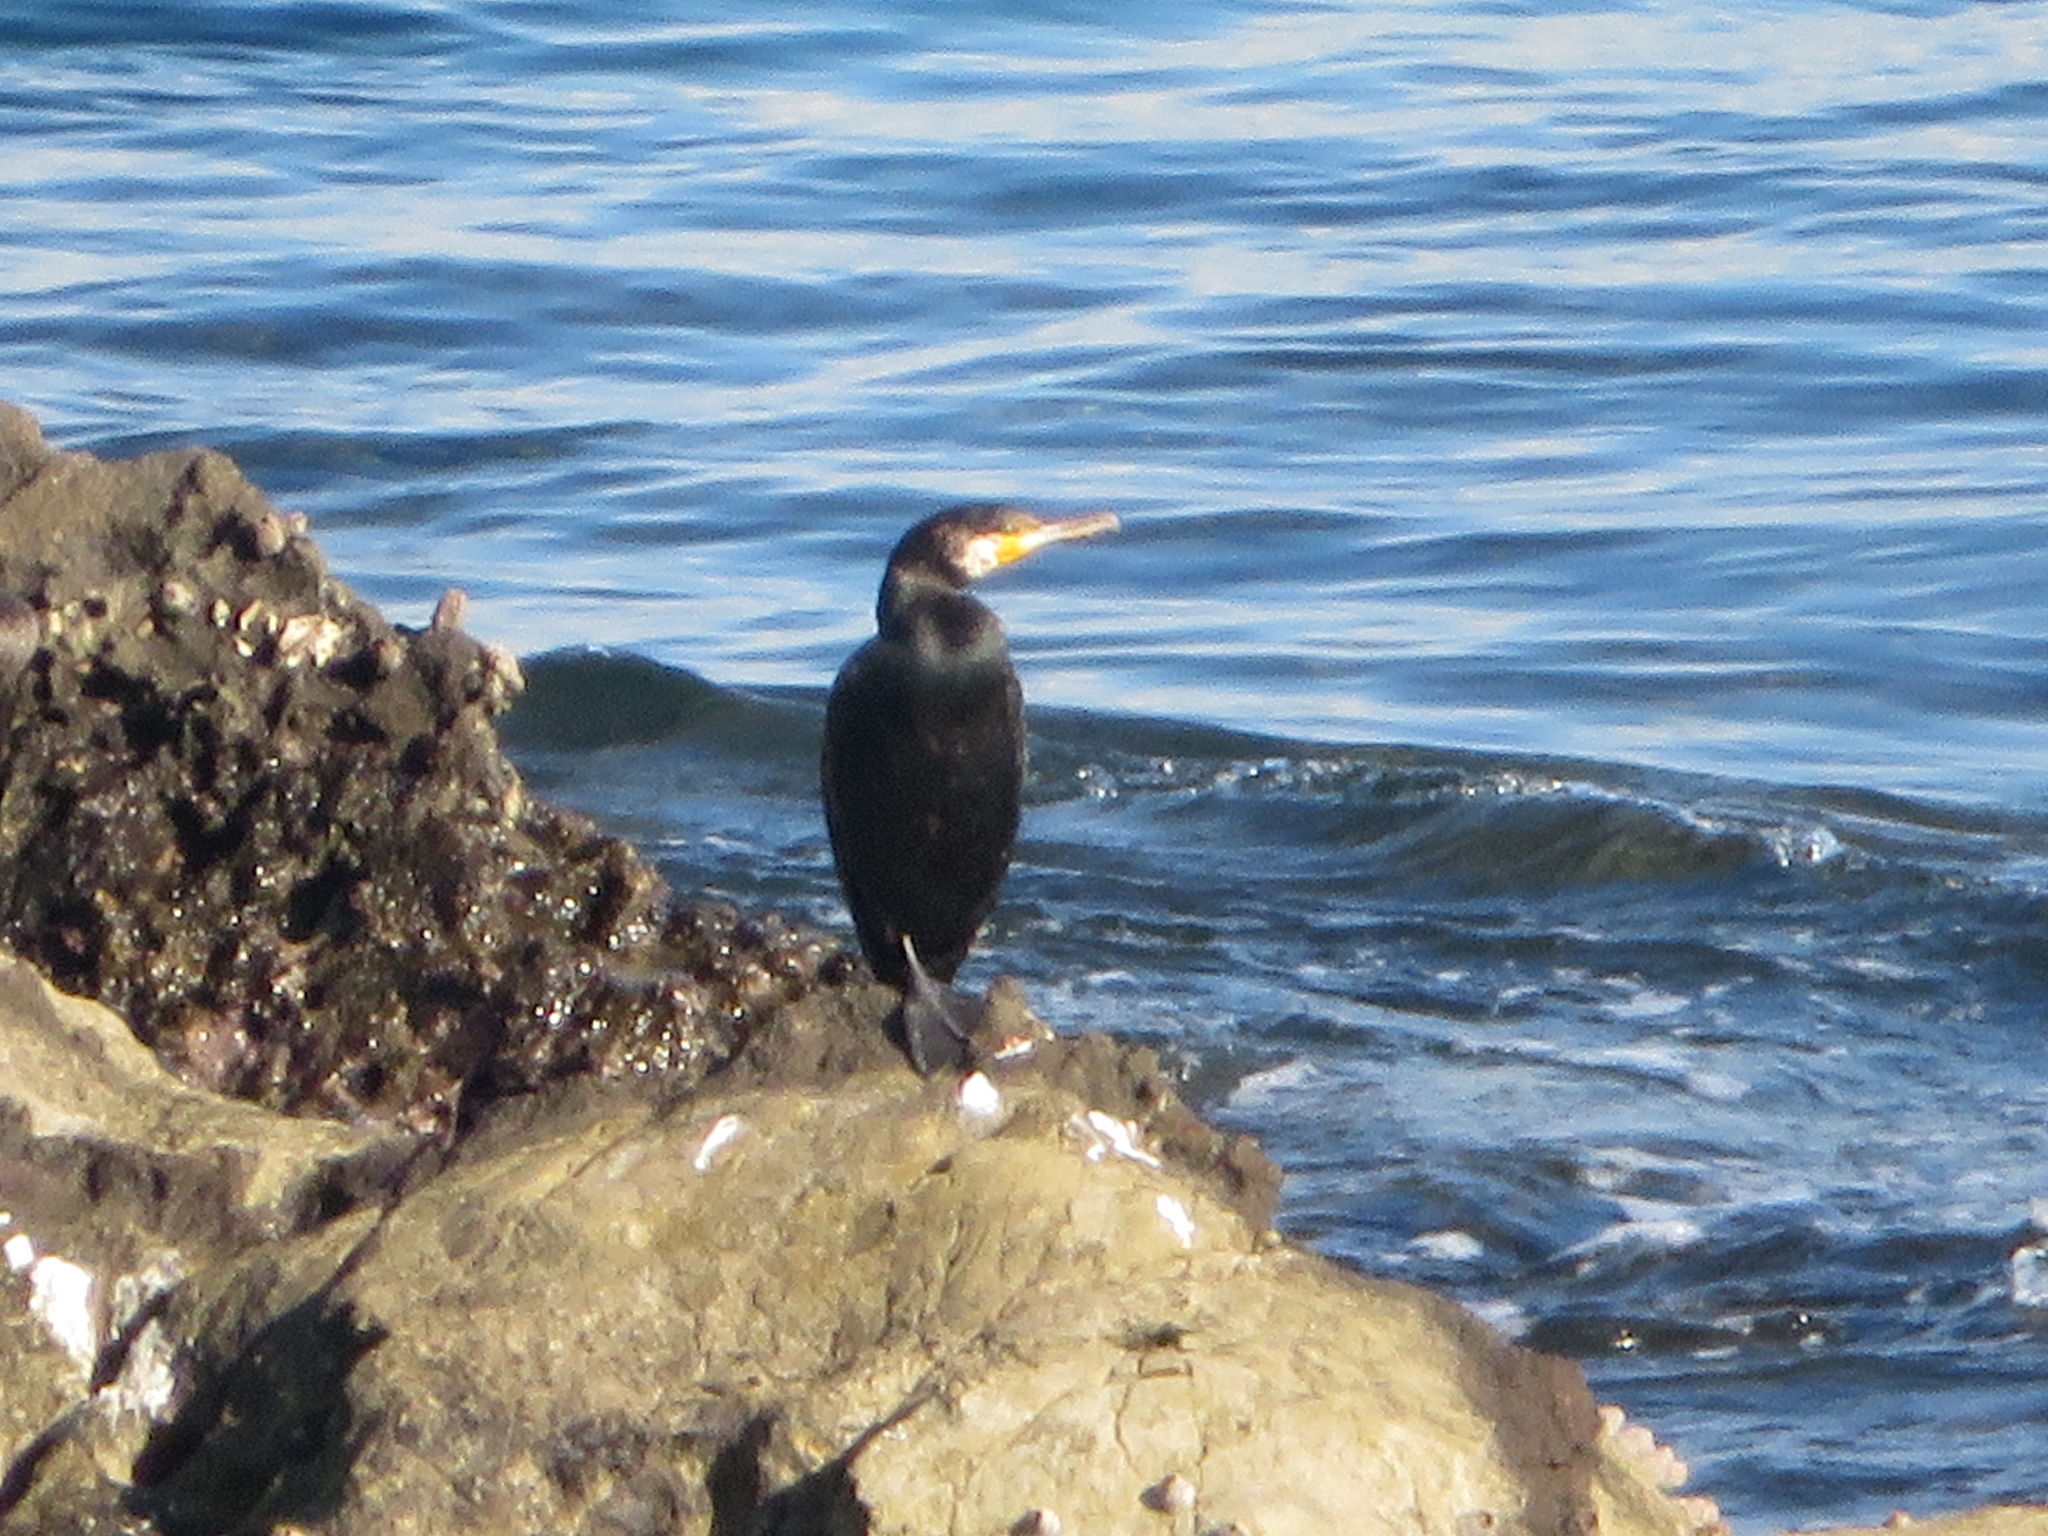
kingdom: Animalia
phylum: Chordata
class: Aves
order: Suliformes
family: Phalacrocoracidae
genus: Phalacrocorax
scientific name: Phalacrocorax capillatus
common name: Japanese cormorant
